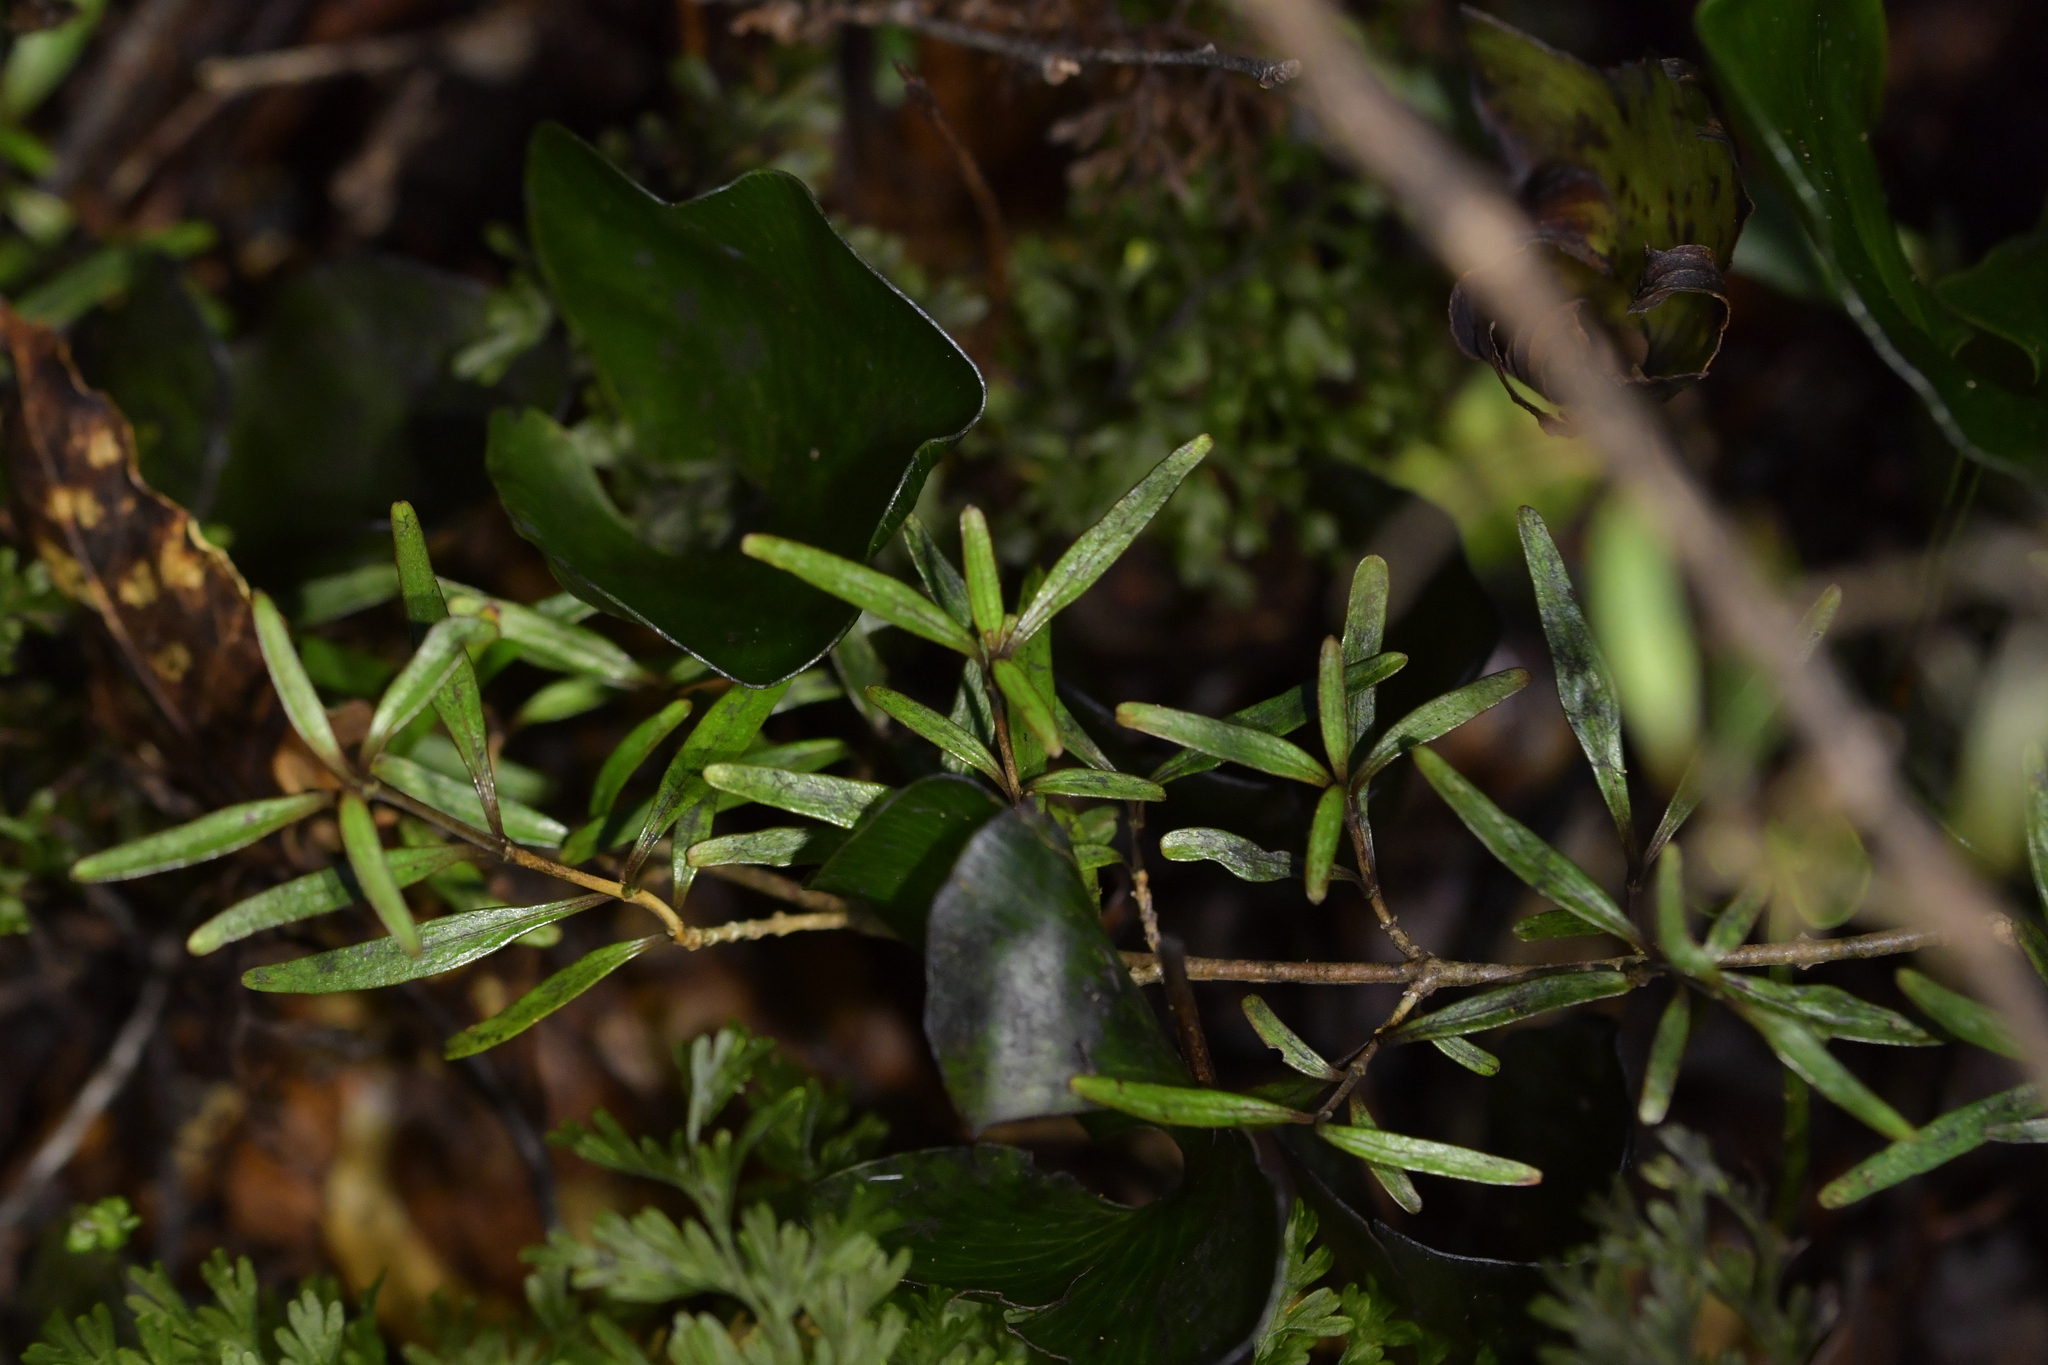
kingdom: Plantae
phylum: Tracheophyta
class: Magnoliopsida
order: Gentianales
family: Rubiaceae
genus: Coprosma
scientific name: Coprosma linariifolia
